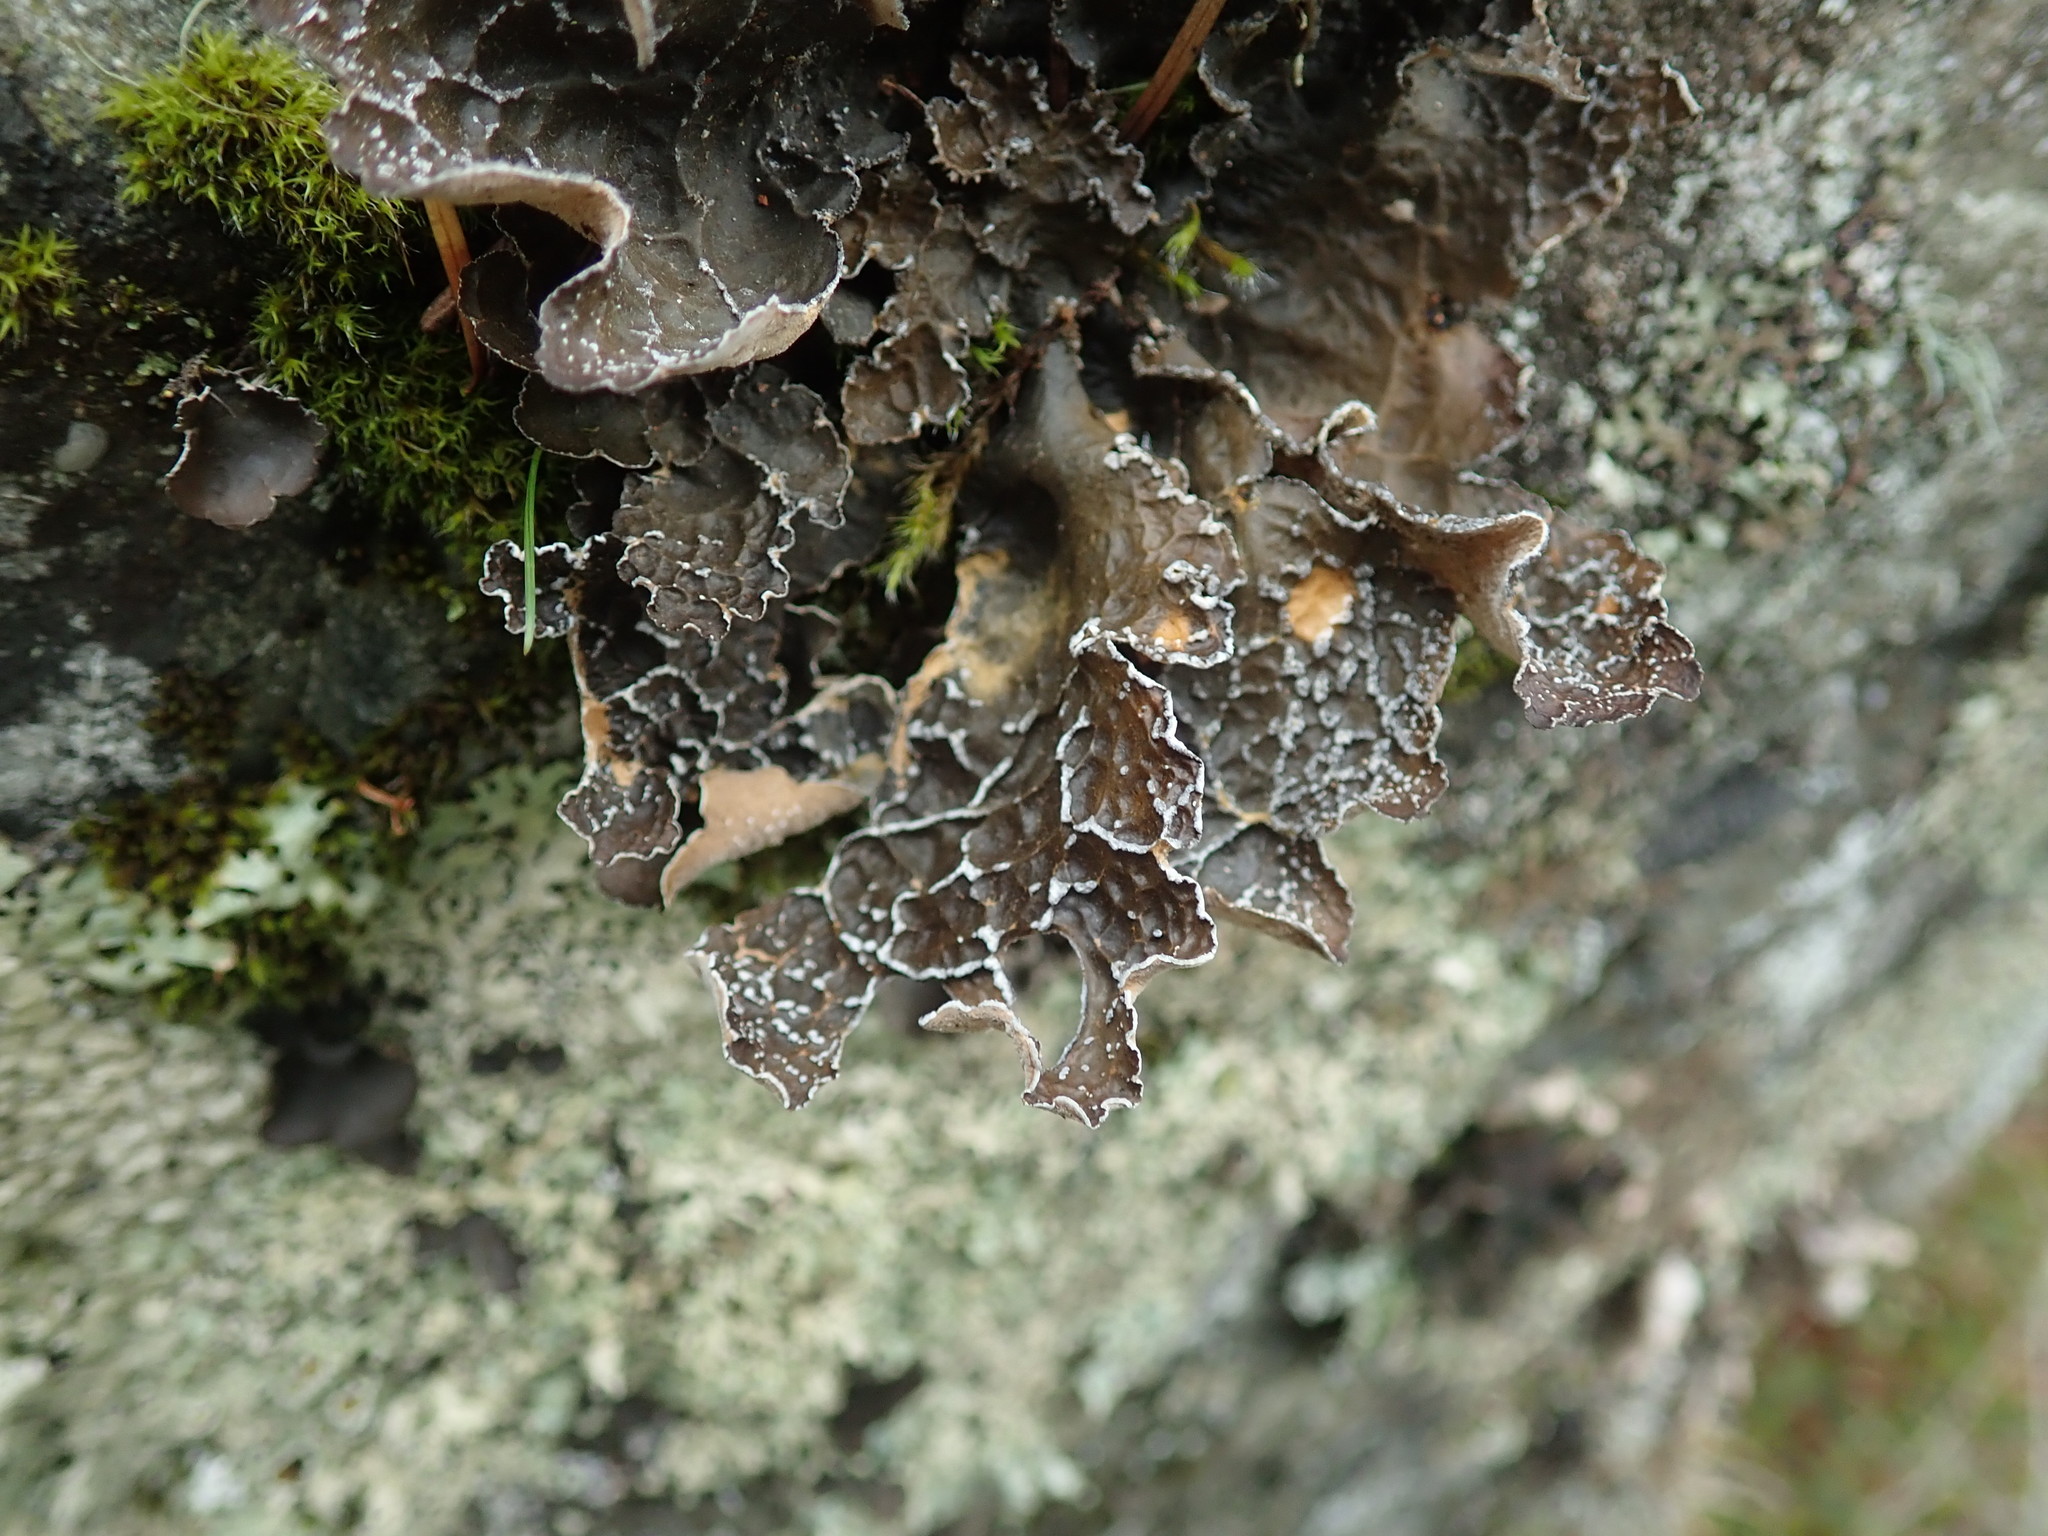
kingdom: Fungi
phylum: Ascomycota
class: Lecanoromycetes
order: Peltigerales
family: Lobariaceae
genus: Lobaria
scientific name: Lobaria anomala
